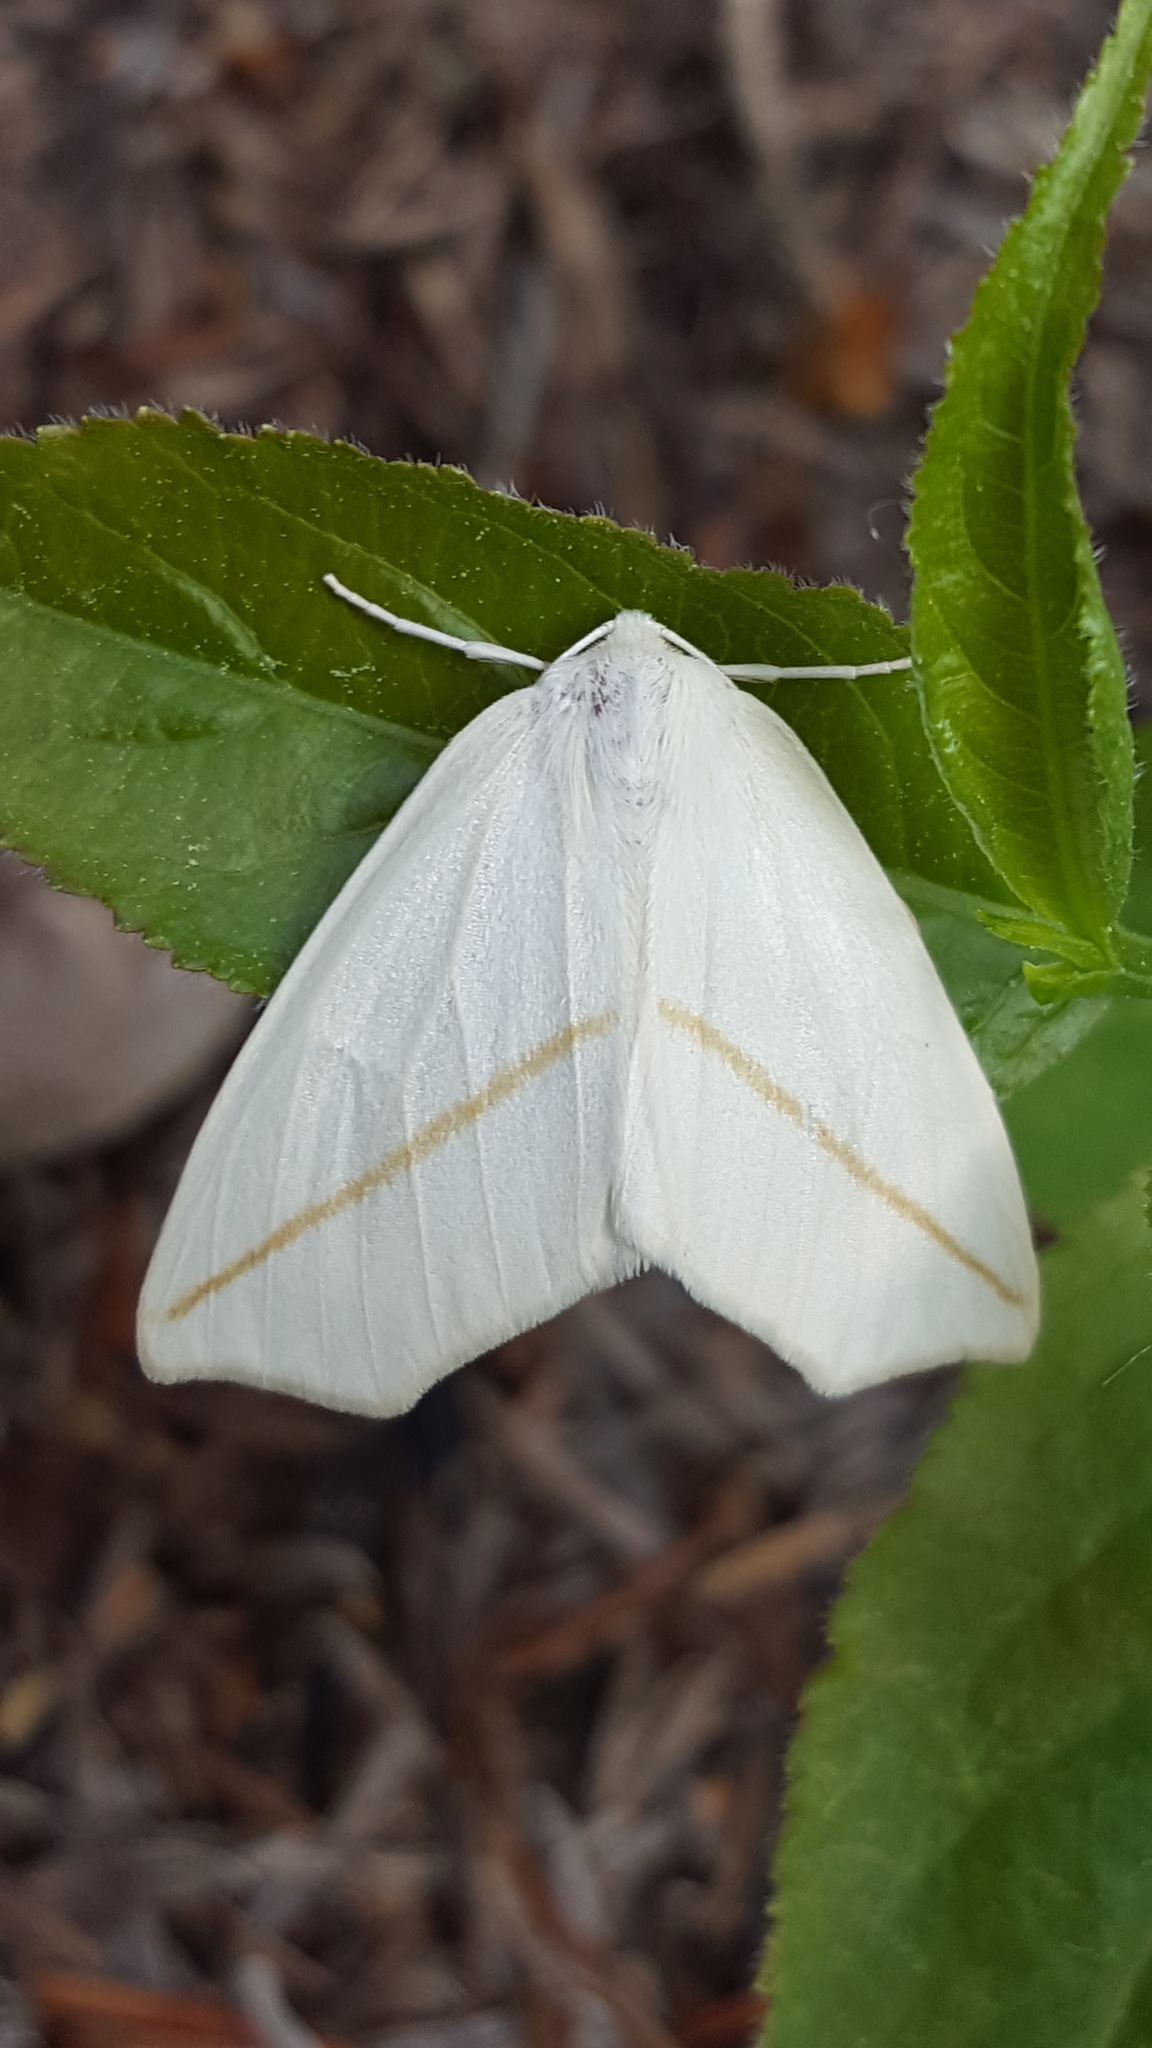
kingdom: Animalia
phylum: Arthropoda
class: Insecta
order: Lepidoptera
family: Geometridae
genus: Tetracis
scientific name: Tetracis cachexiata
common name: White slant-line
